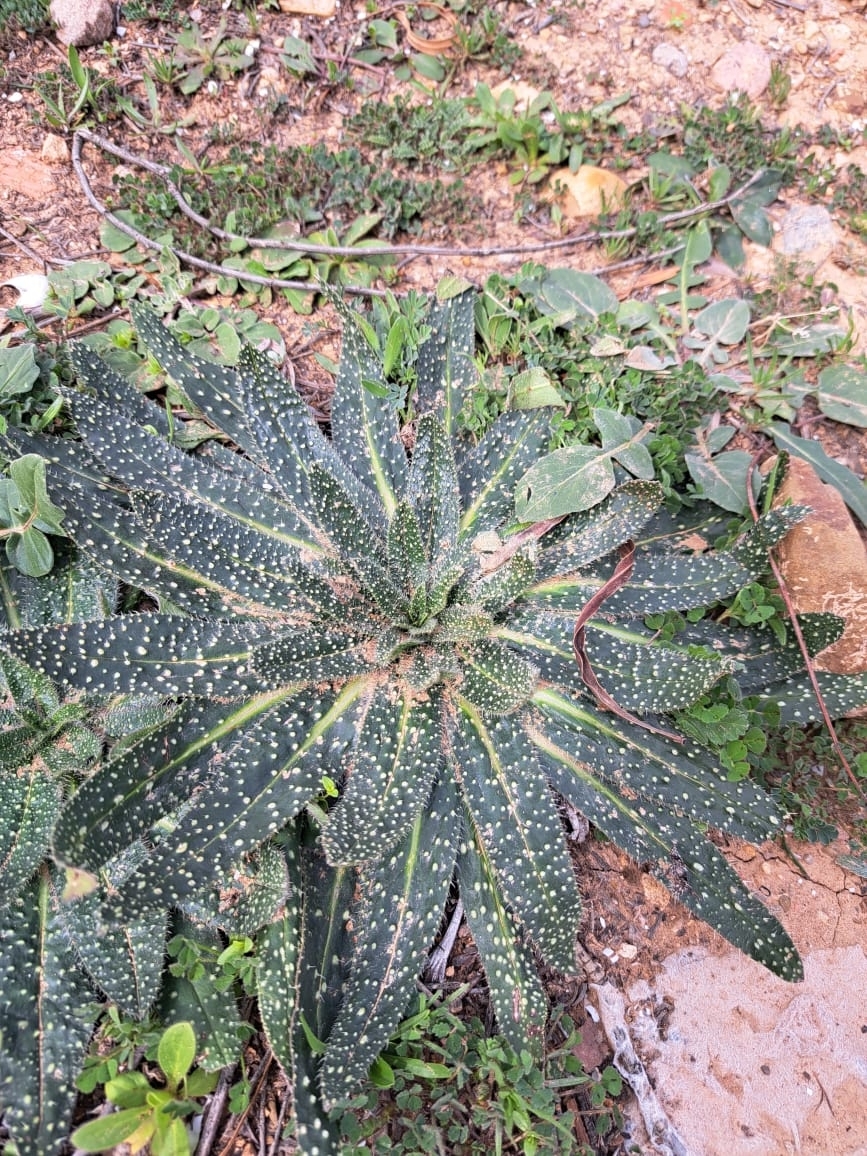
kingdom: Plantae
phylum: Tracheophyta
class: Magnoliopsida
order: Boraginales
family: Boraginaceae
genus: Echium
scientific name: Echium asperrimum
